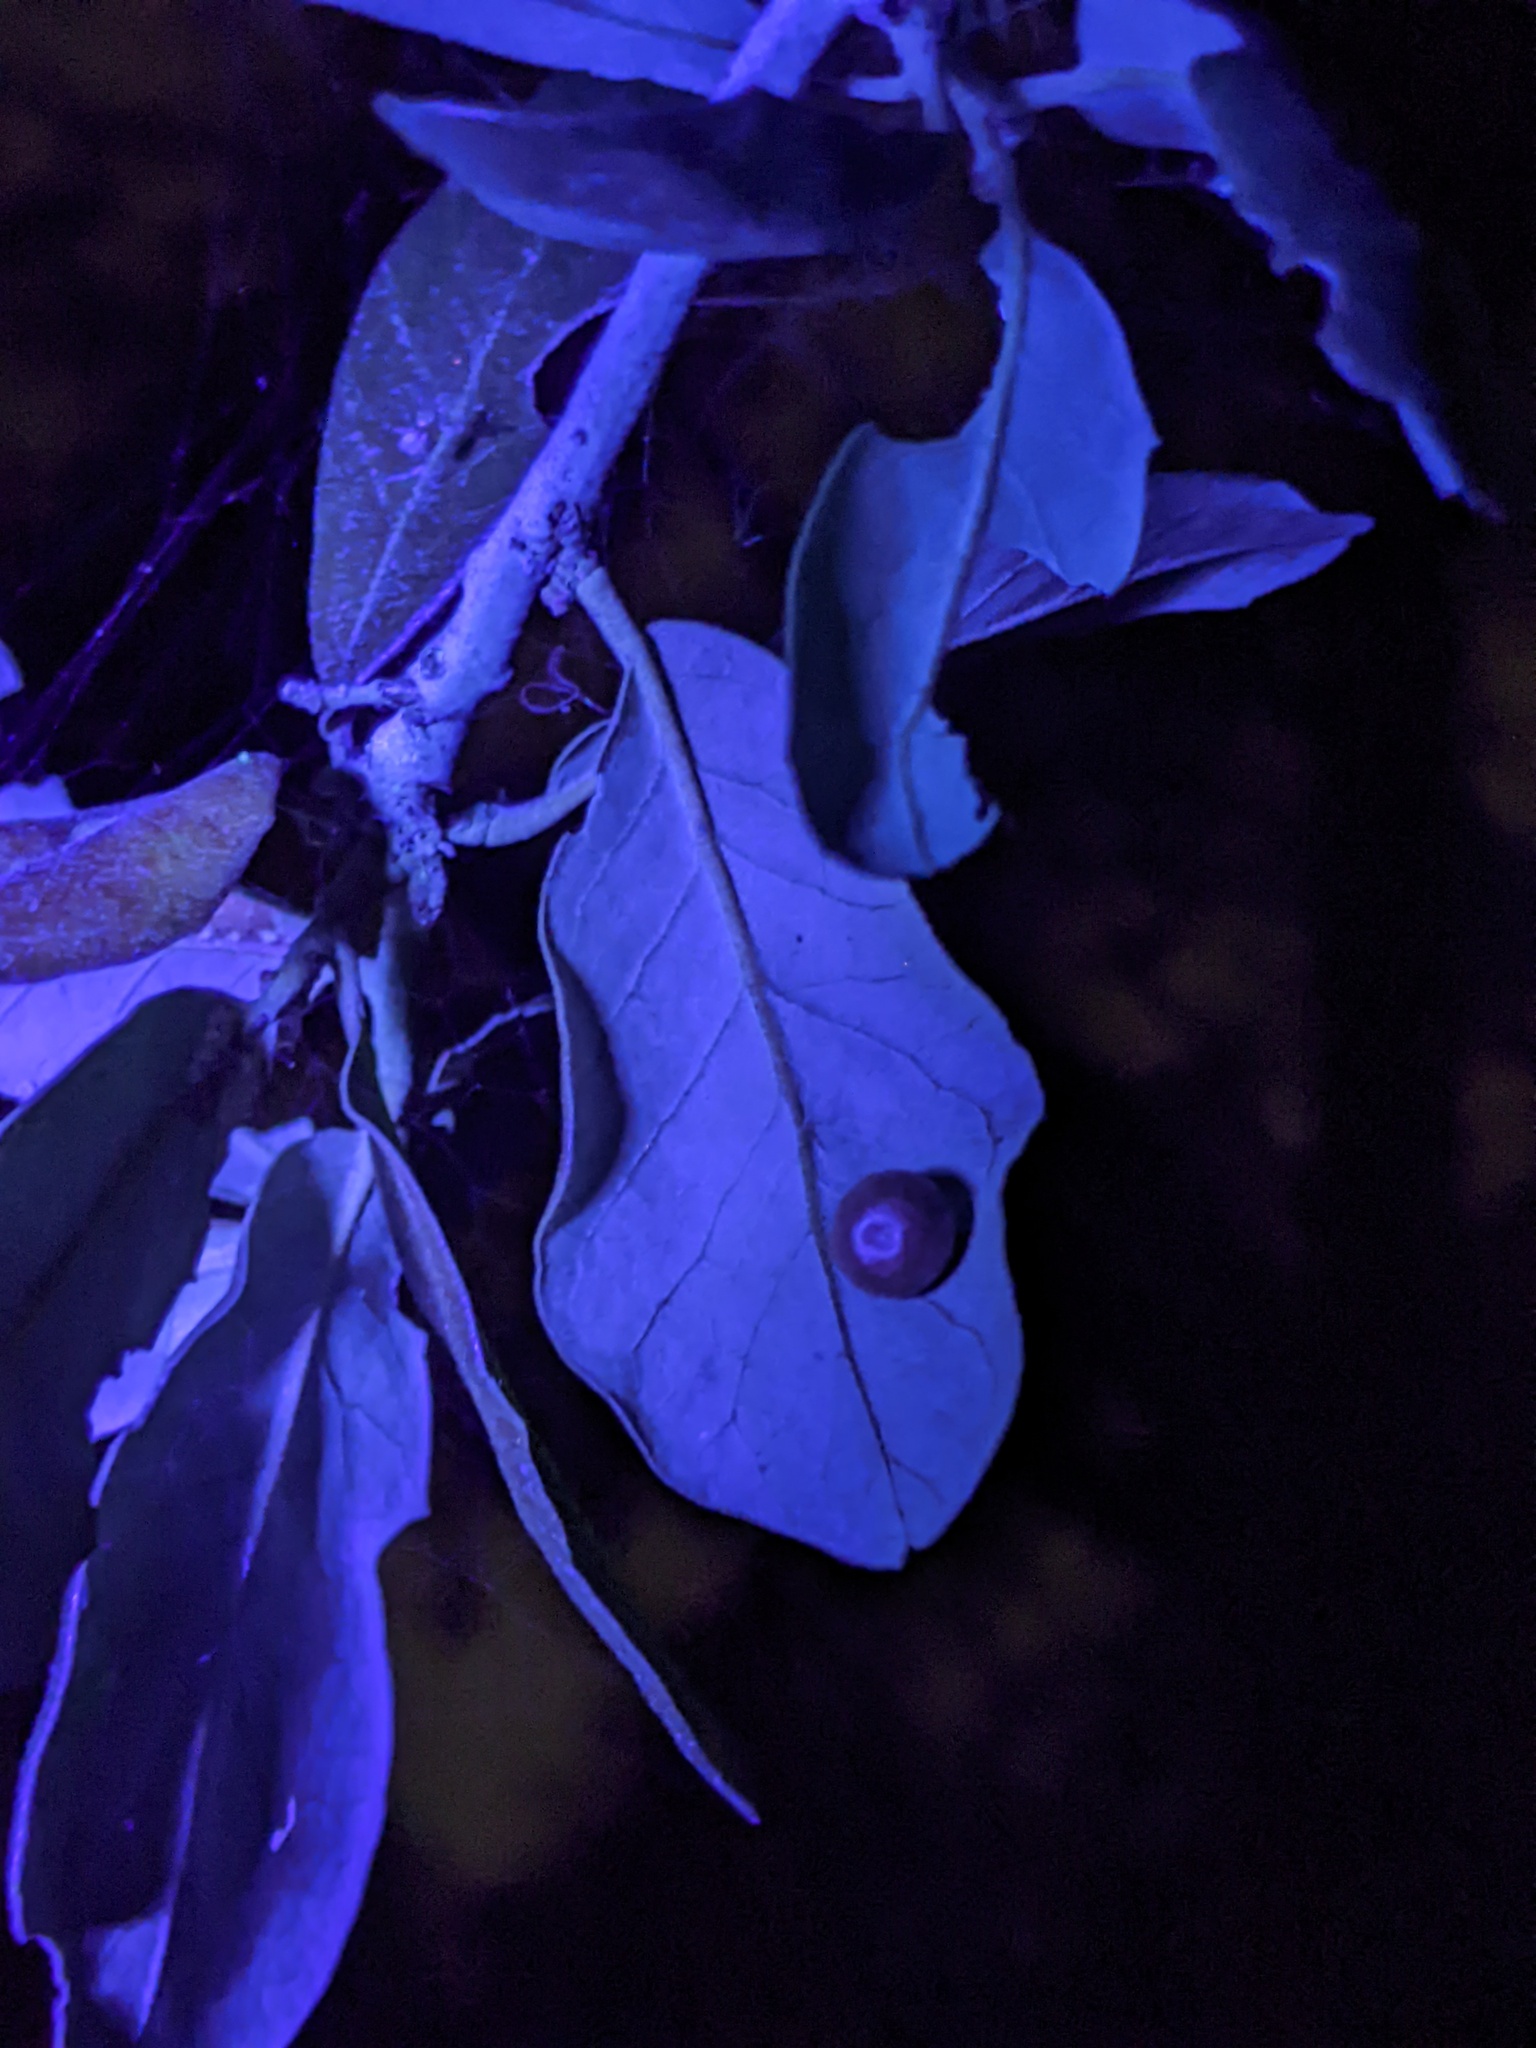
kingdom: Animalia
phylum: Arthropoda
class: Insecta
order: Hymenoptera
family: Cynipidae
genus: Belonocnema
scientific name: Belonocnema kinseyi
